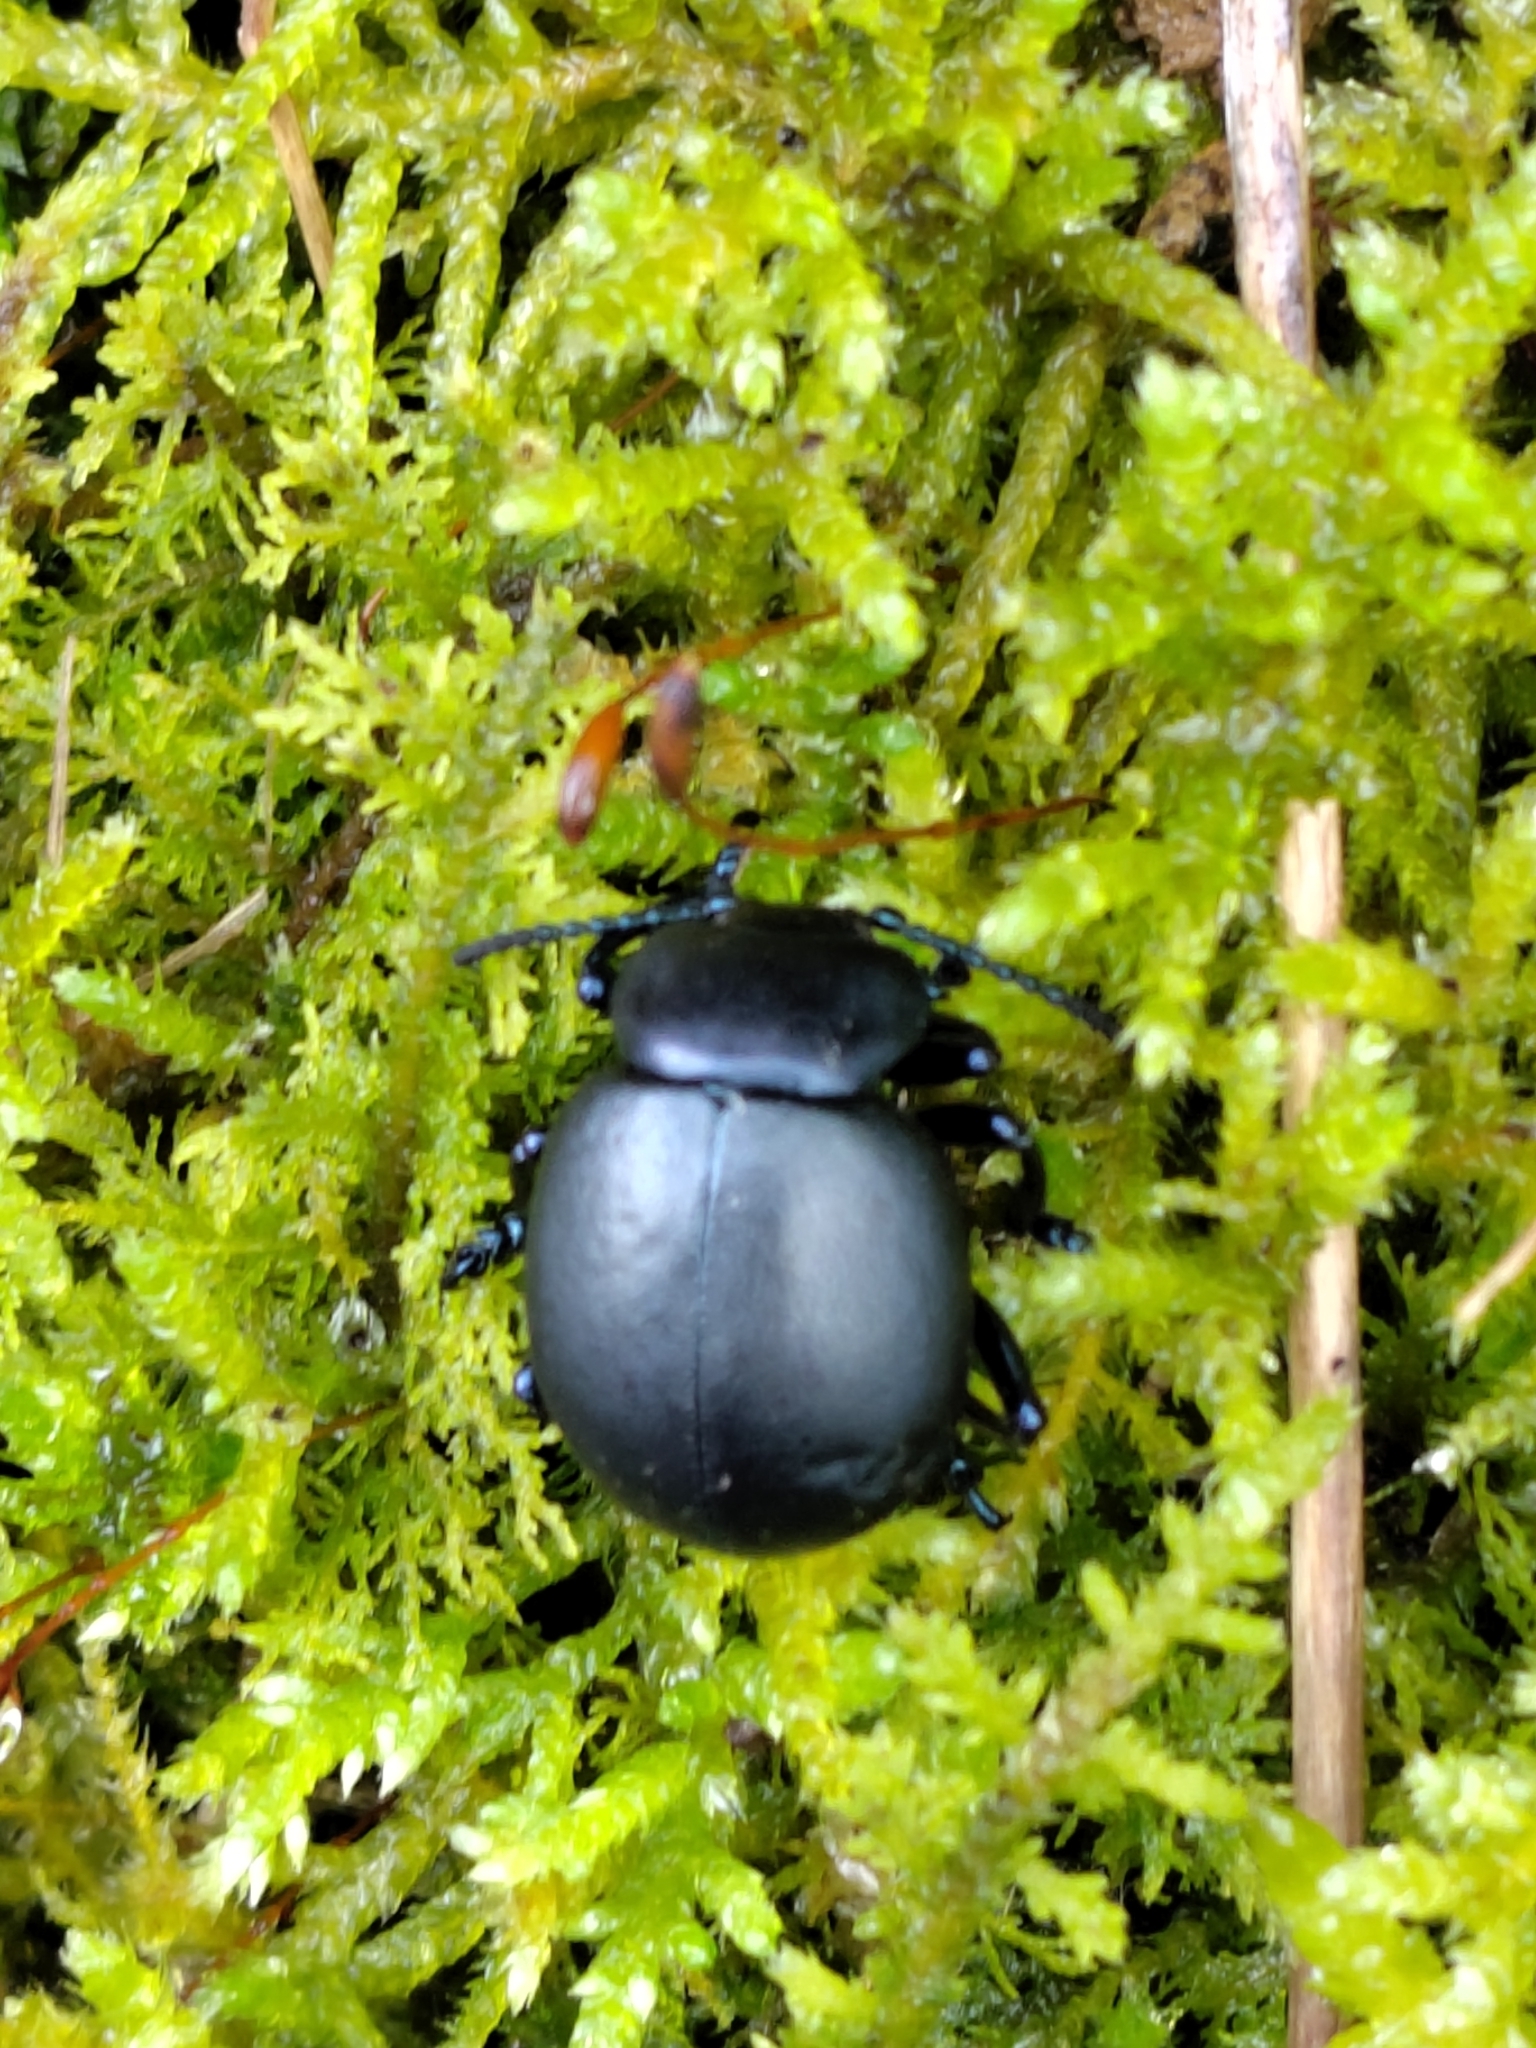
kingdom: Animalia
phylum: Arthropoda
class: Insecta
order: Coleoptera
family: Chrysomelidae
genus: Timarcha
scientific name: Timarcha tenebricosa
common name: Bloody-nosed beetle
